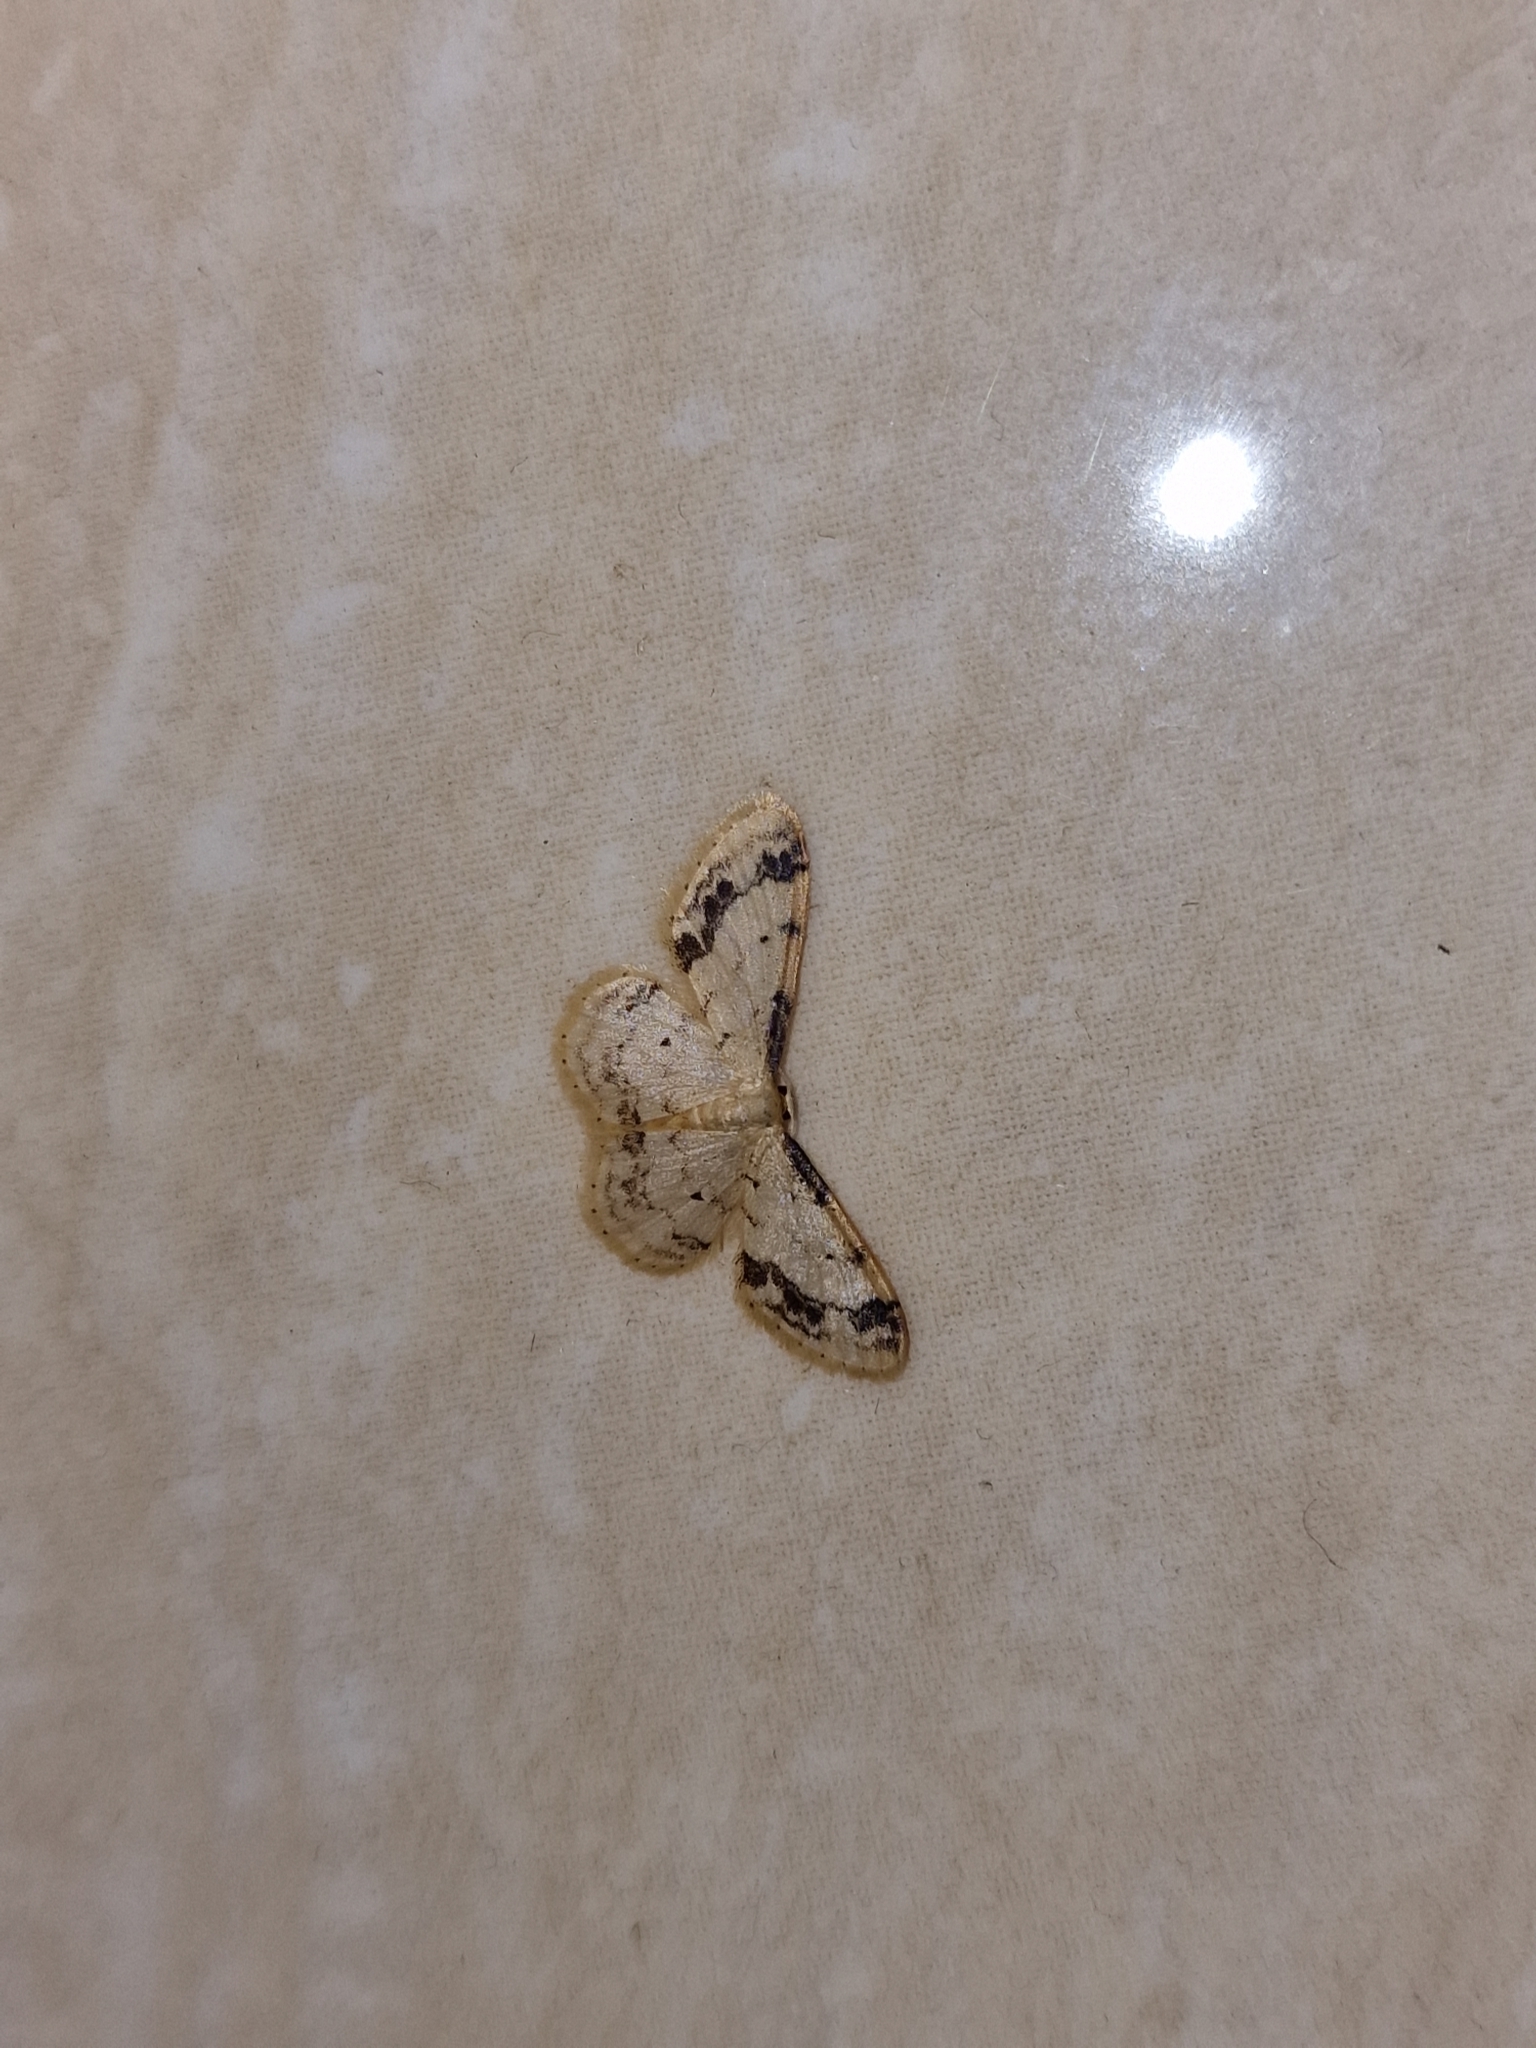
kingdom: Animalia
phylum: Arthropoda
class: Insecta
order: Lepidoptera
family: Geometridae
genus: Idaea
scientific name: Idaea trigeminata
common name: Treble brown spot
